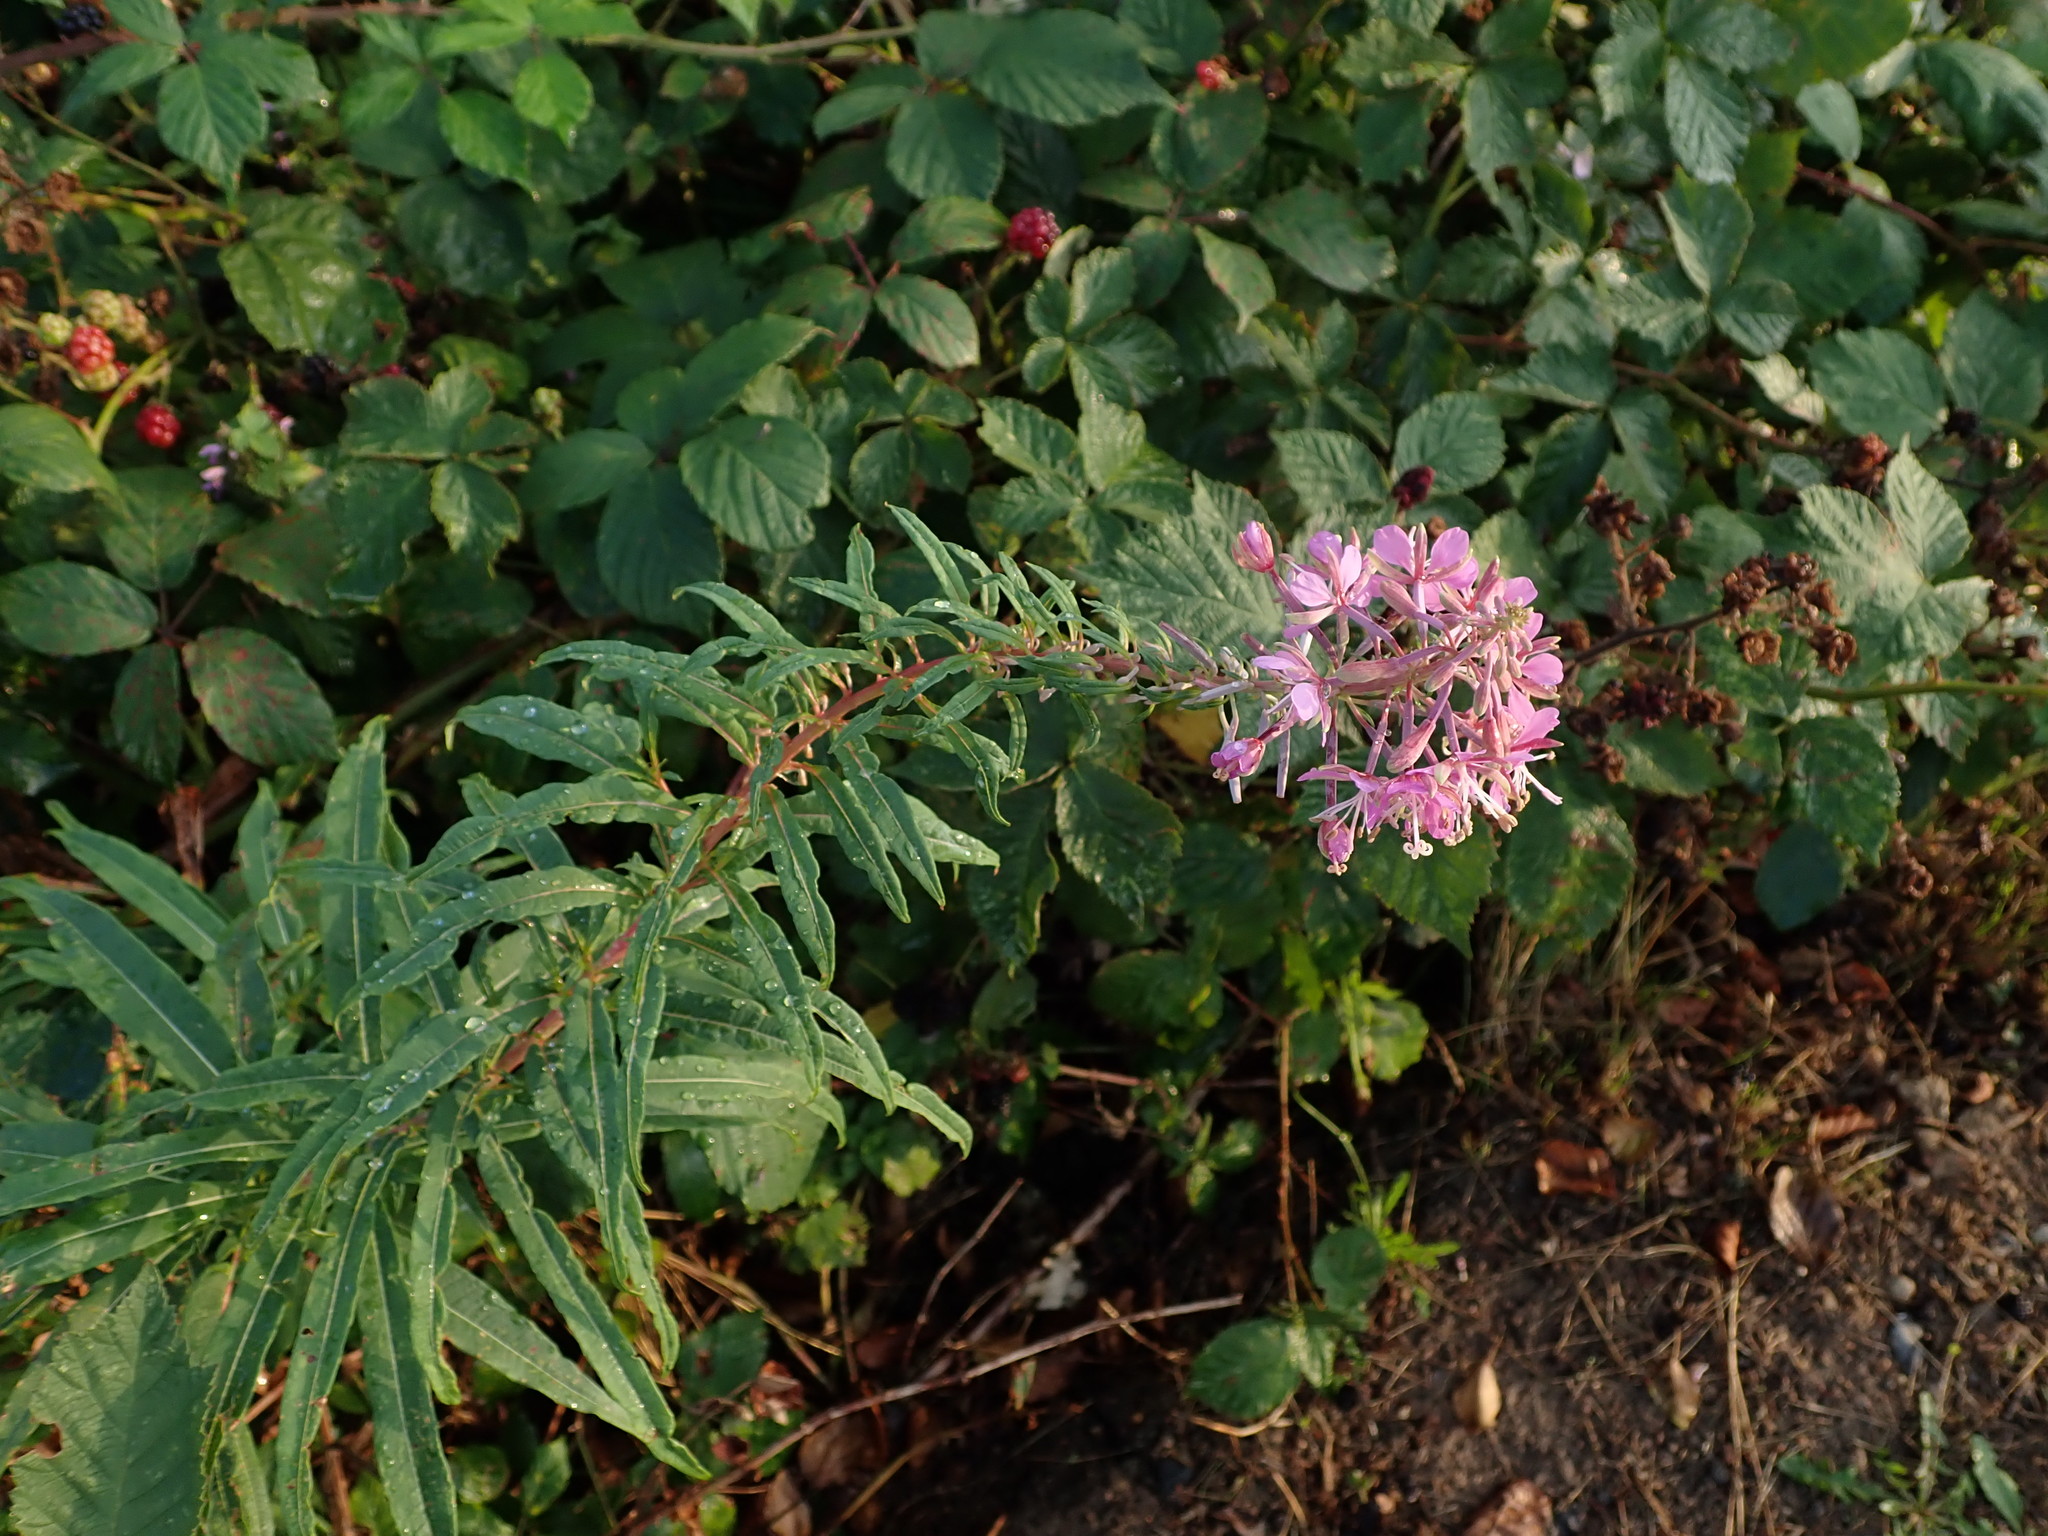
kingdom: Plantae
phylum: Tracheophyta
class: Magnoliopsida
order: Myrtales
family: Onagraceae
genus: Chamaenerion
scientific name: Chamaenerion angustifolium
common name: Fireweed
